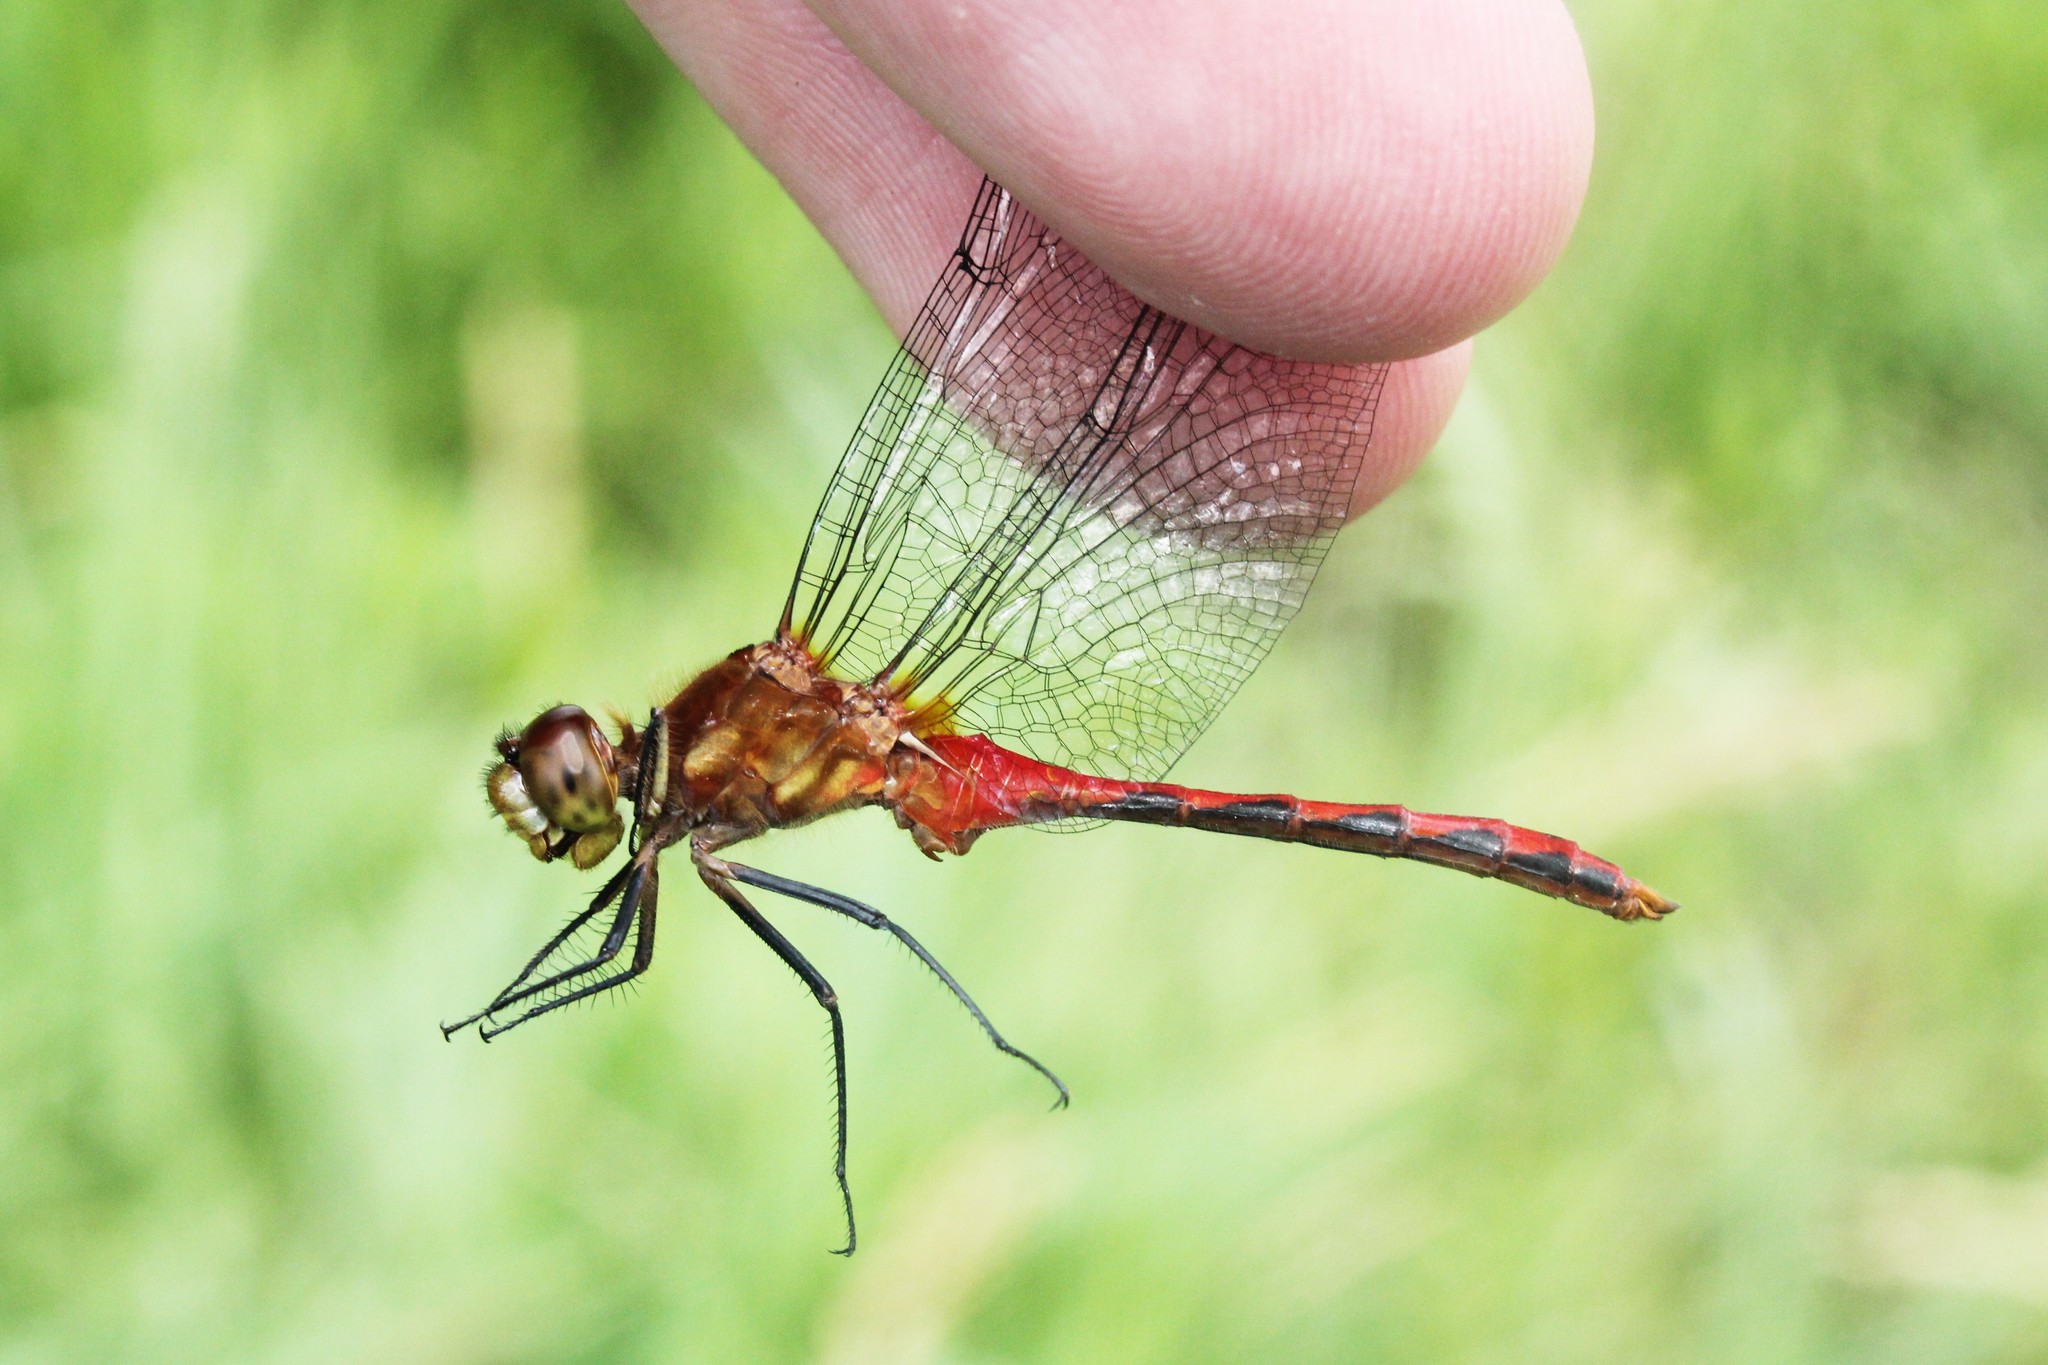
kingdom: Animalia
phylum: Arthropoda
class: Insecta
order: Odonata
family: Libellulidae
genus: Sympetrum
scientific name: Sympetrum rubicundulum
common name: Ruby meadowhawk
